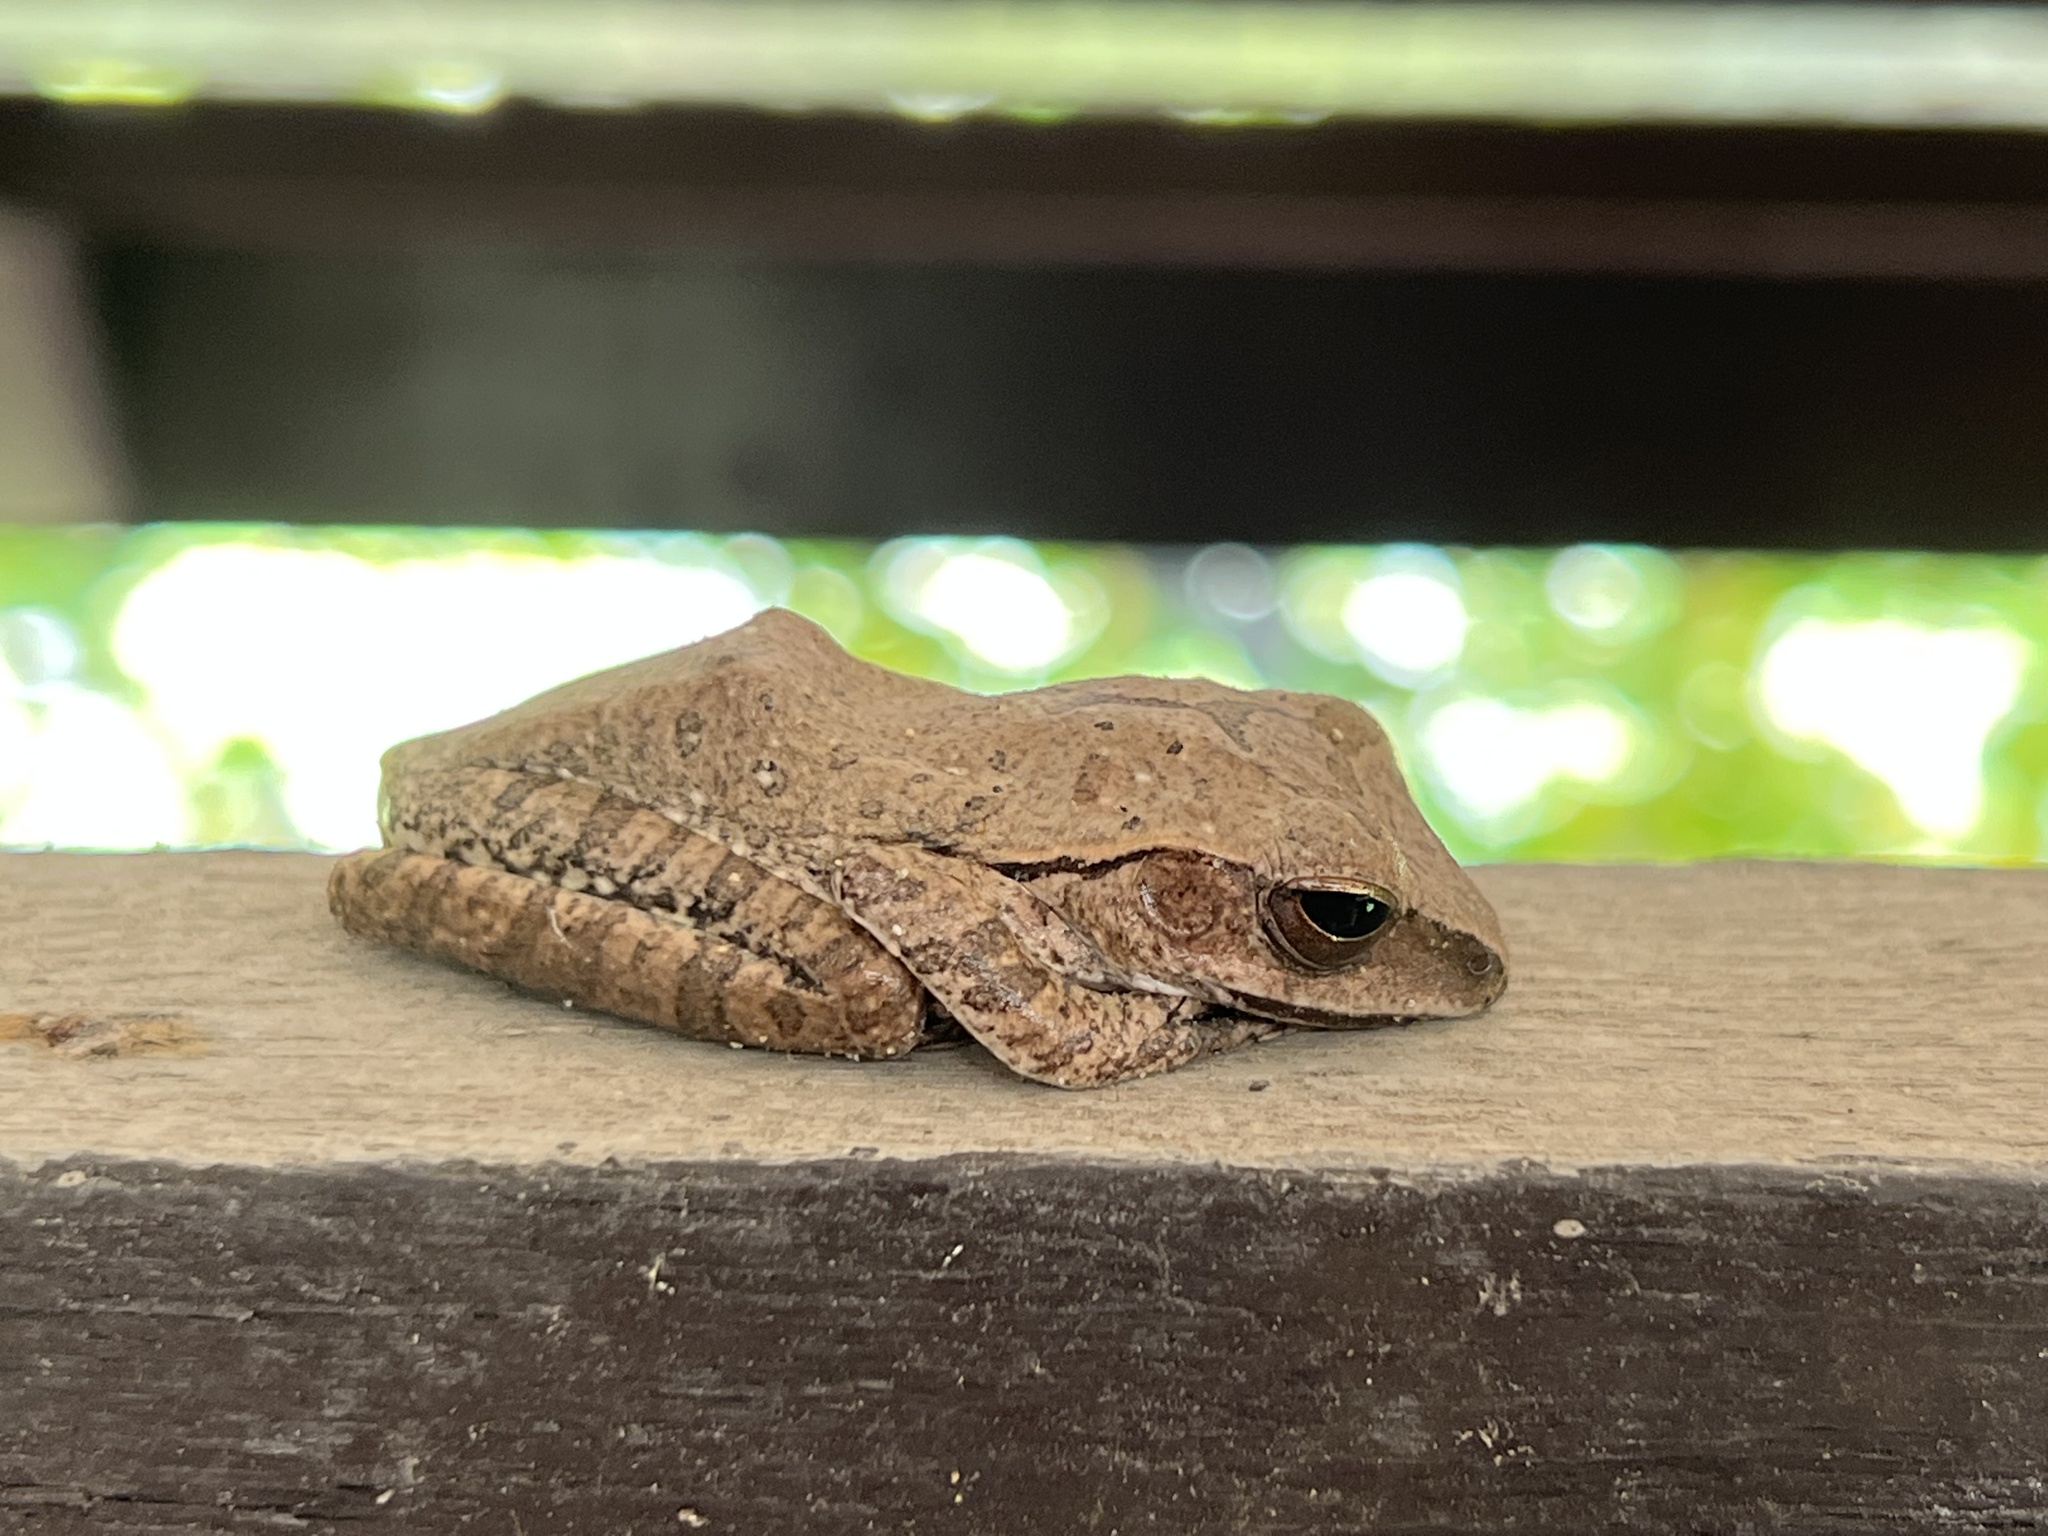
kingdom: Animalia
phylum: Chordata
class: Amphibia
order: Anura
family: Rhacophoridae
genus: Polypedates
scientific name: Polypedates megacephalus
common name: Hong kong whipping frog
